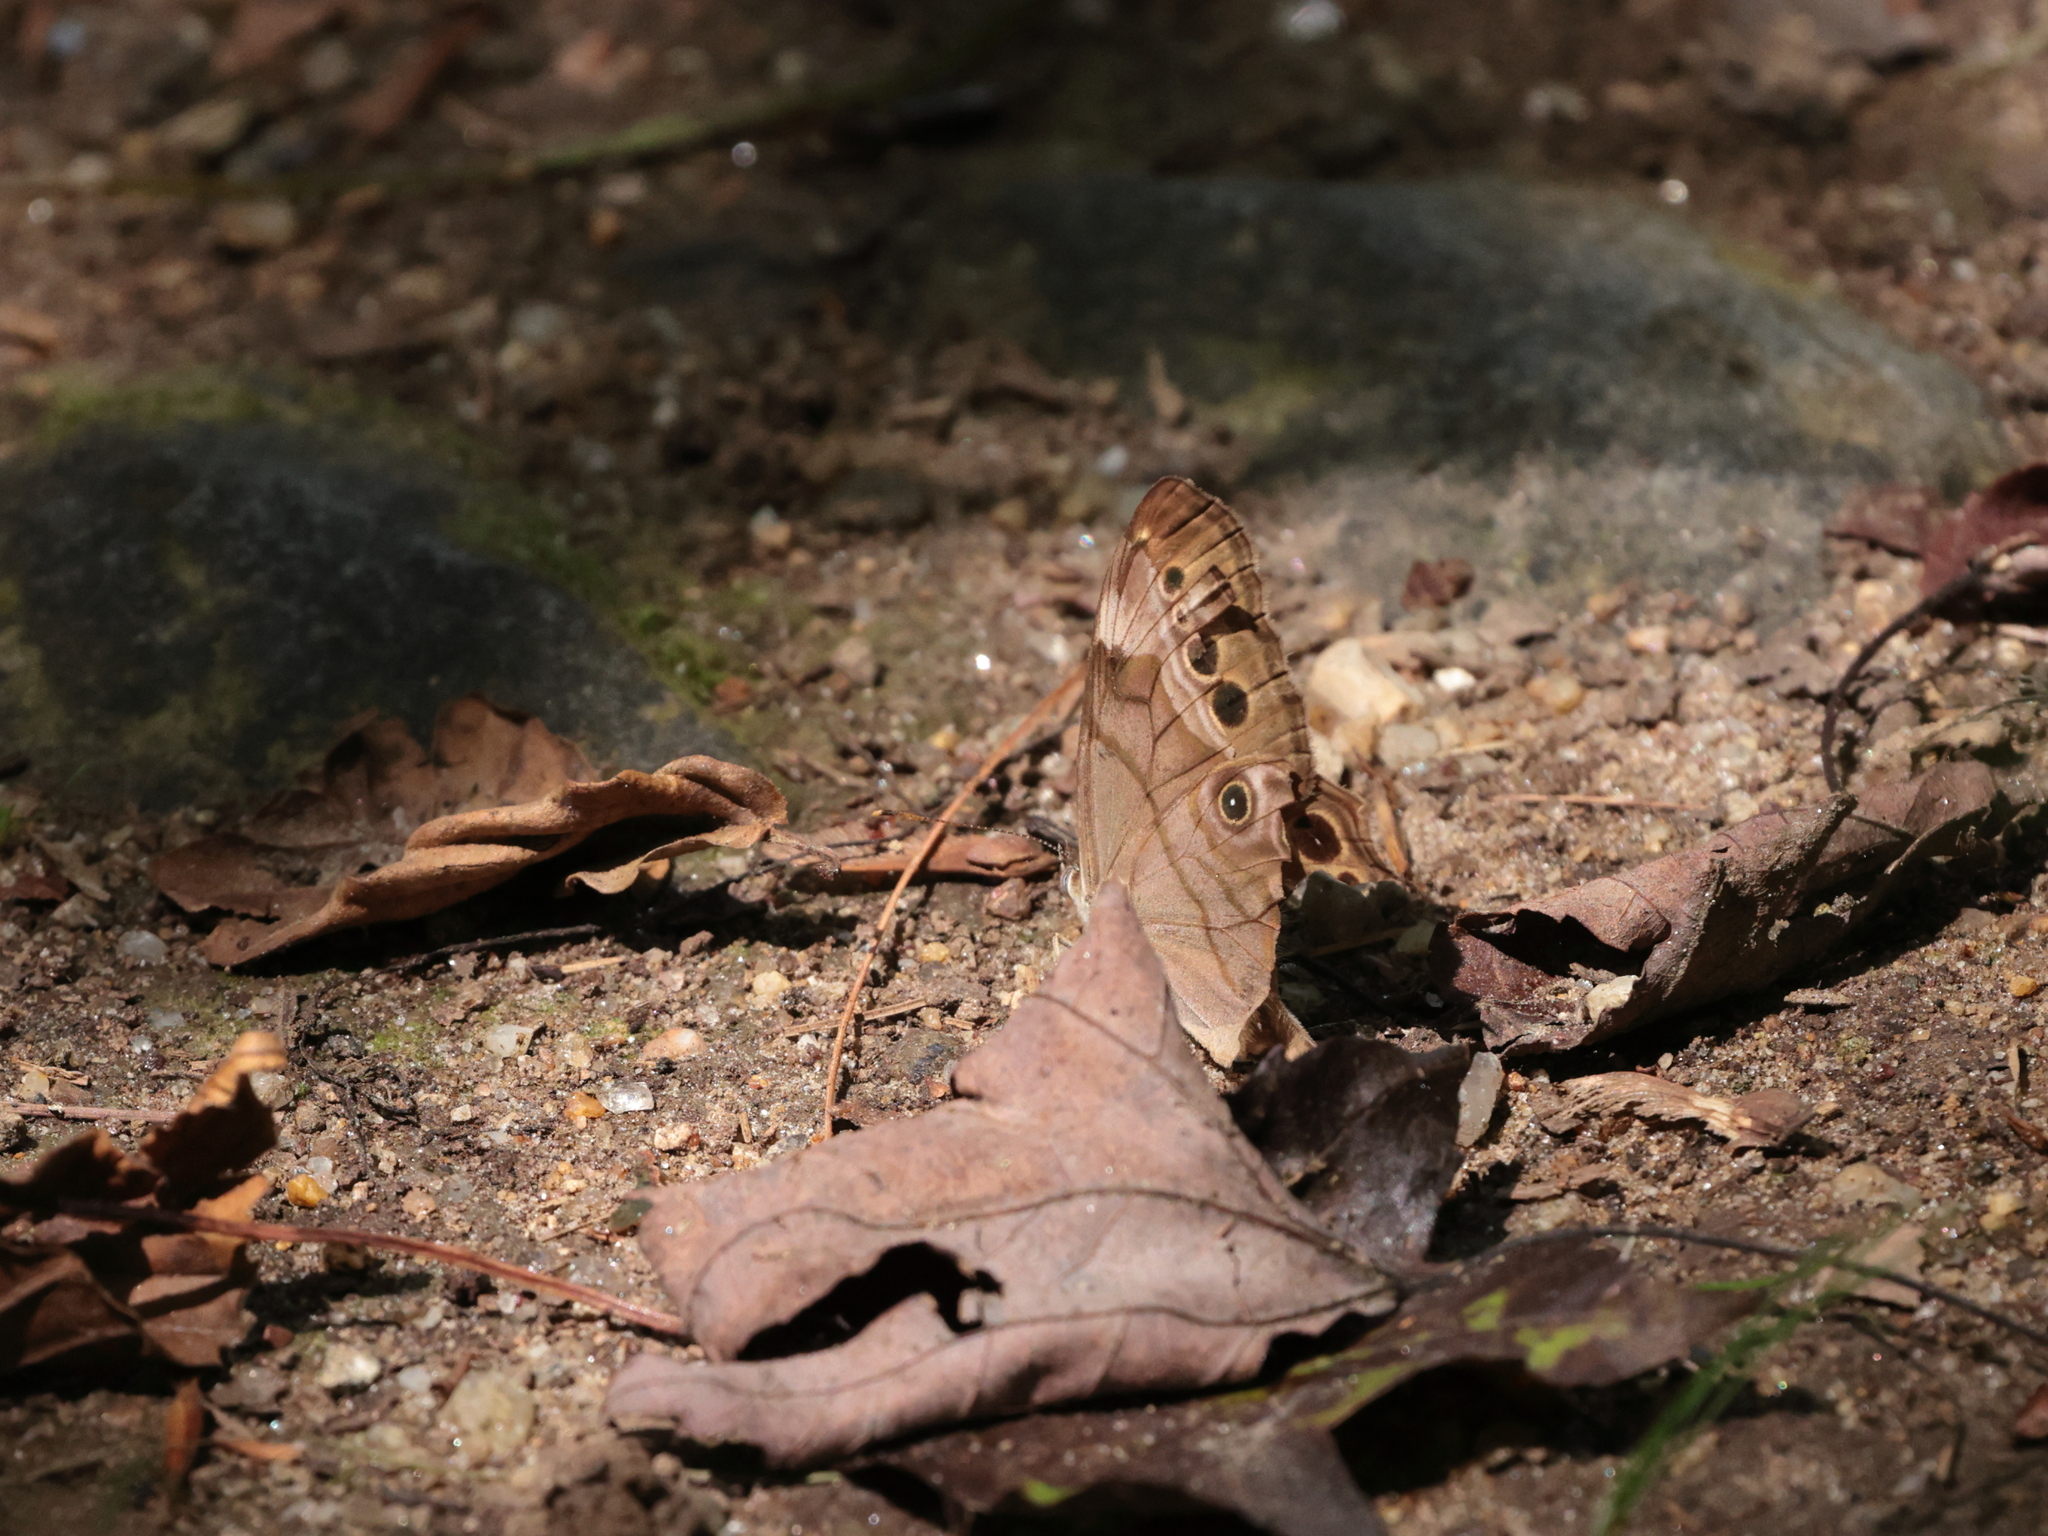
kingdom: Animalia
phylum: Arthropoda
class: Insecta
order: Lepidoptera
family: Nymphalidae
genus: Lethe
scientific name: Lethe anthedon
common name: Northern pearly-eye
